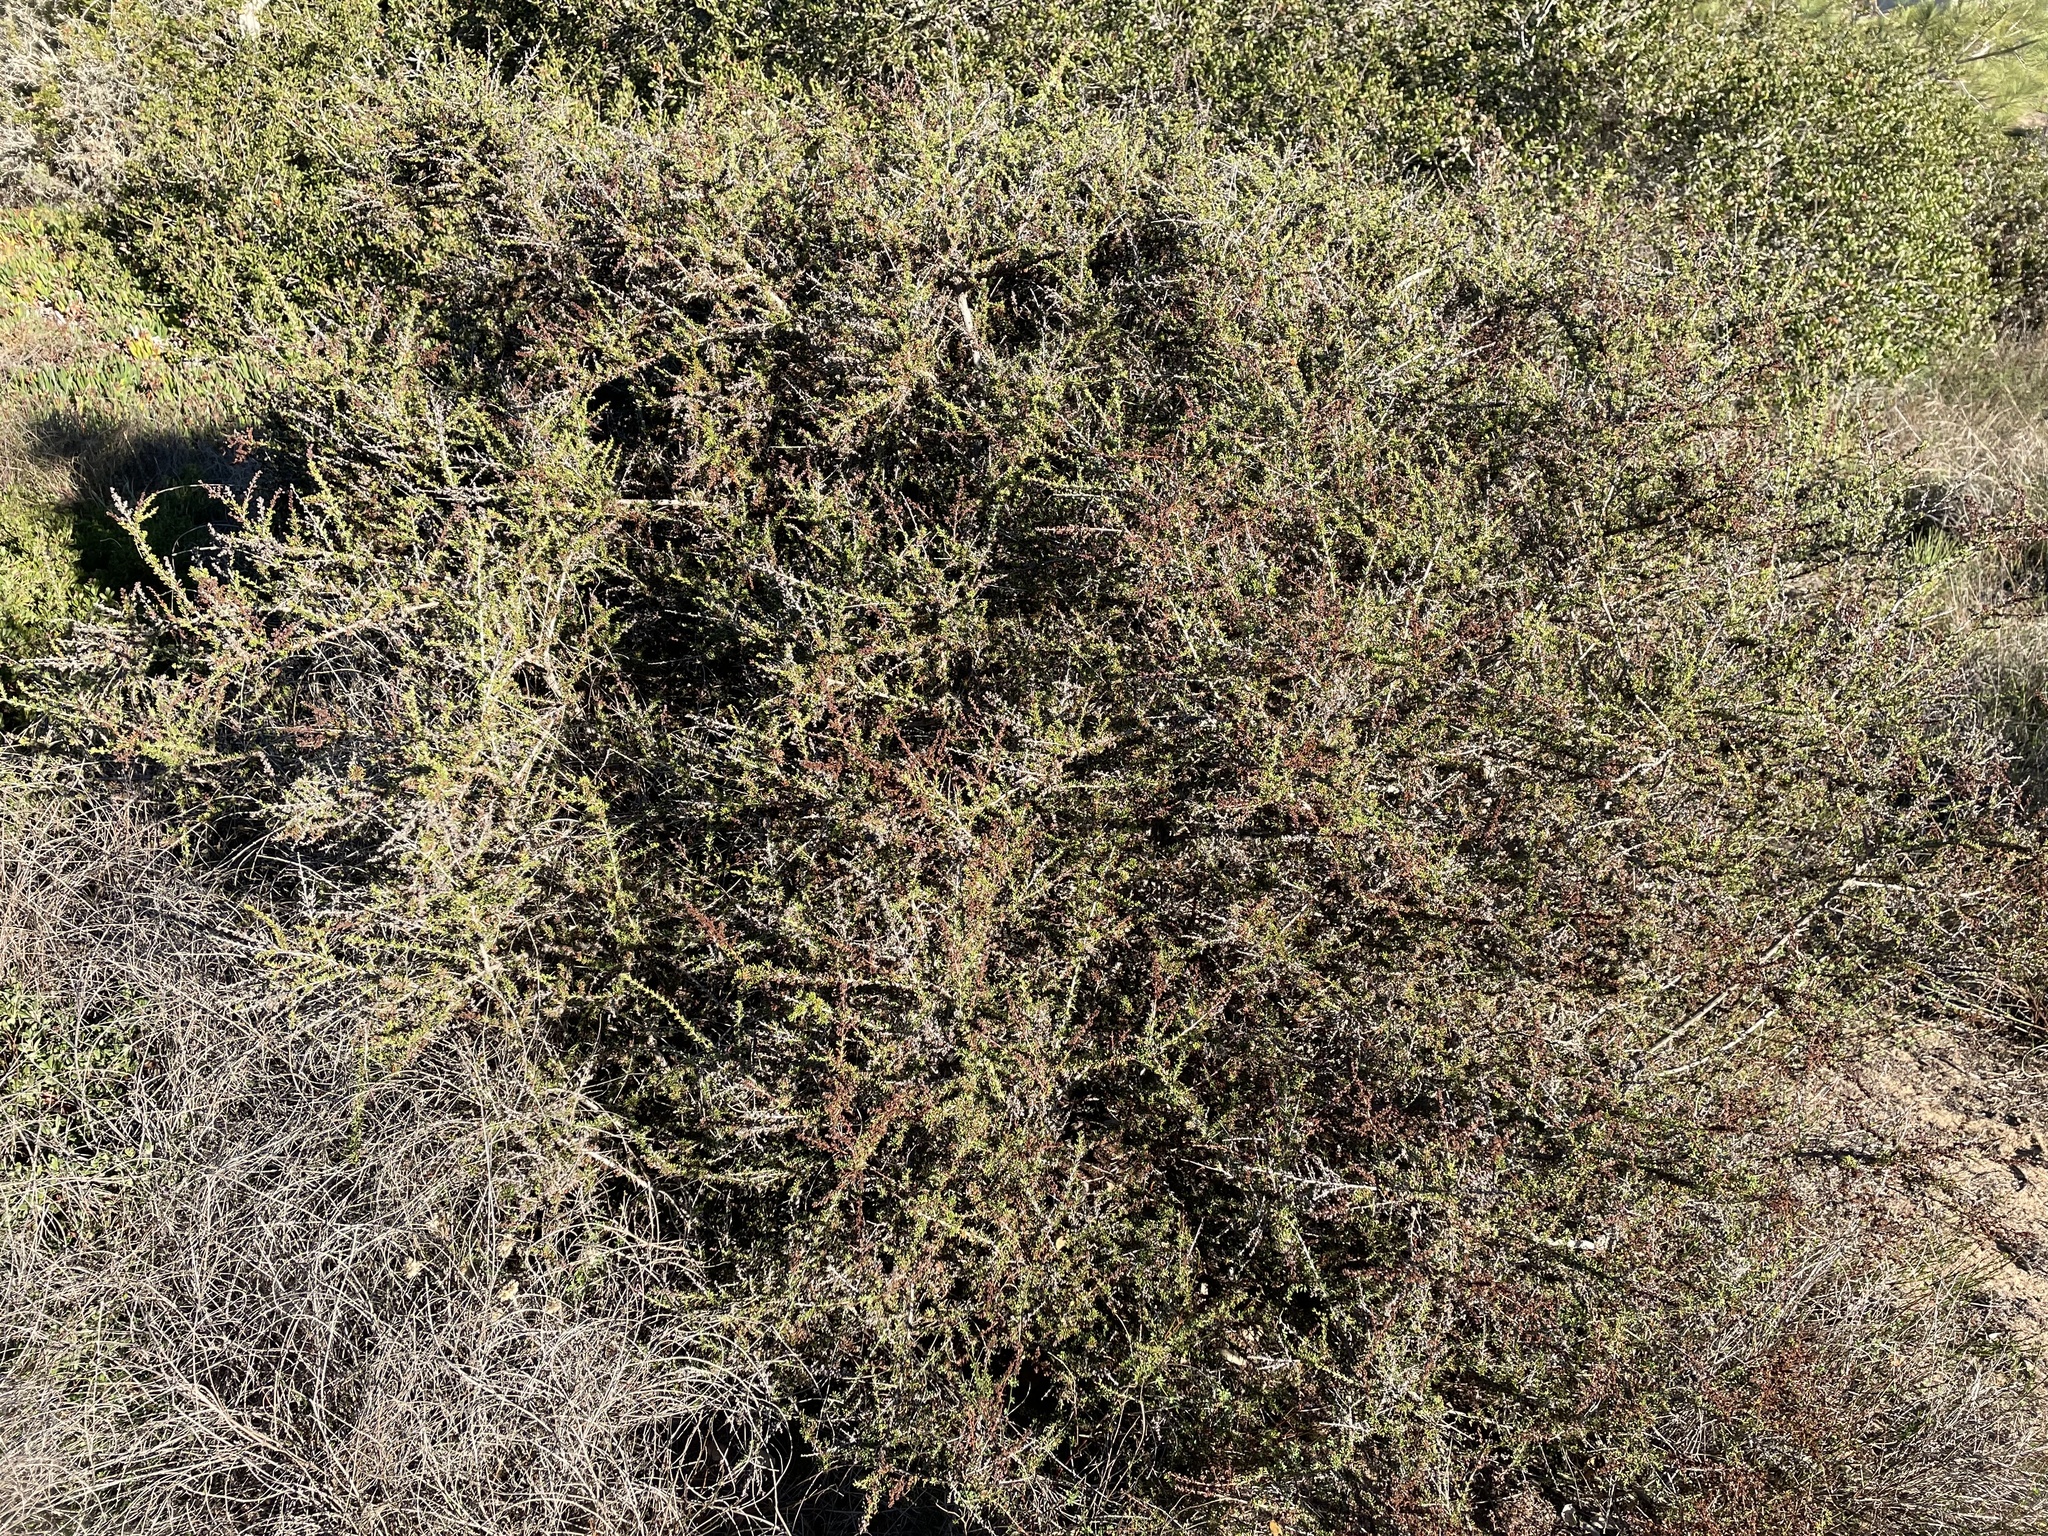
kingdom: Plantae
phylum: Tracheophyta
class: Magnoliopsida
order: Rosales
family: Rosaceae
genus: Adenostoma
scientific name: Adenostoma fasciculatum
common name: Chamise
